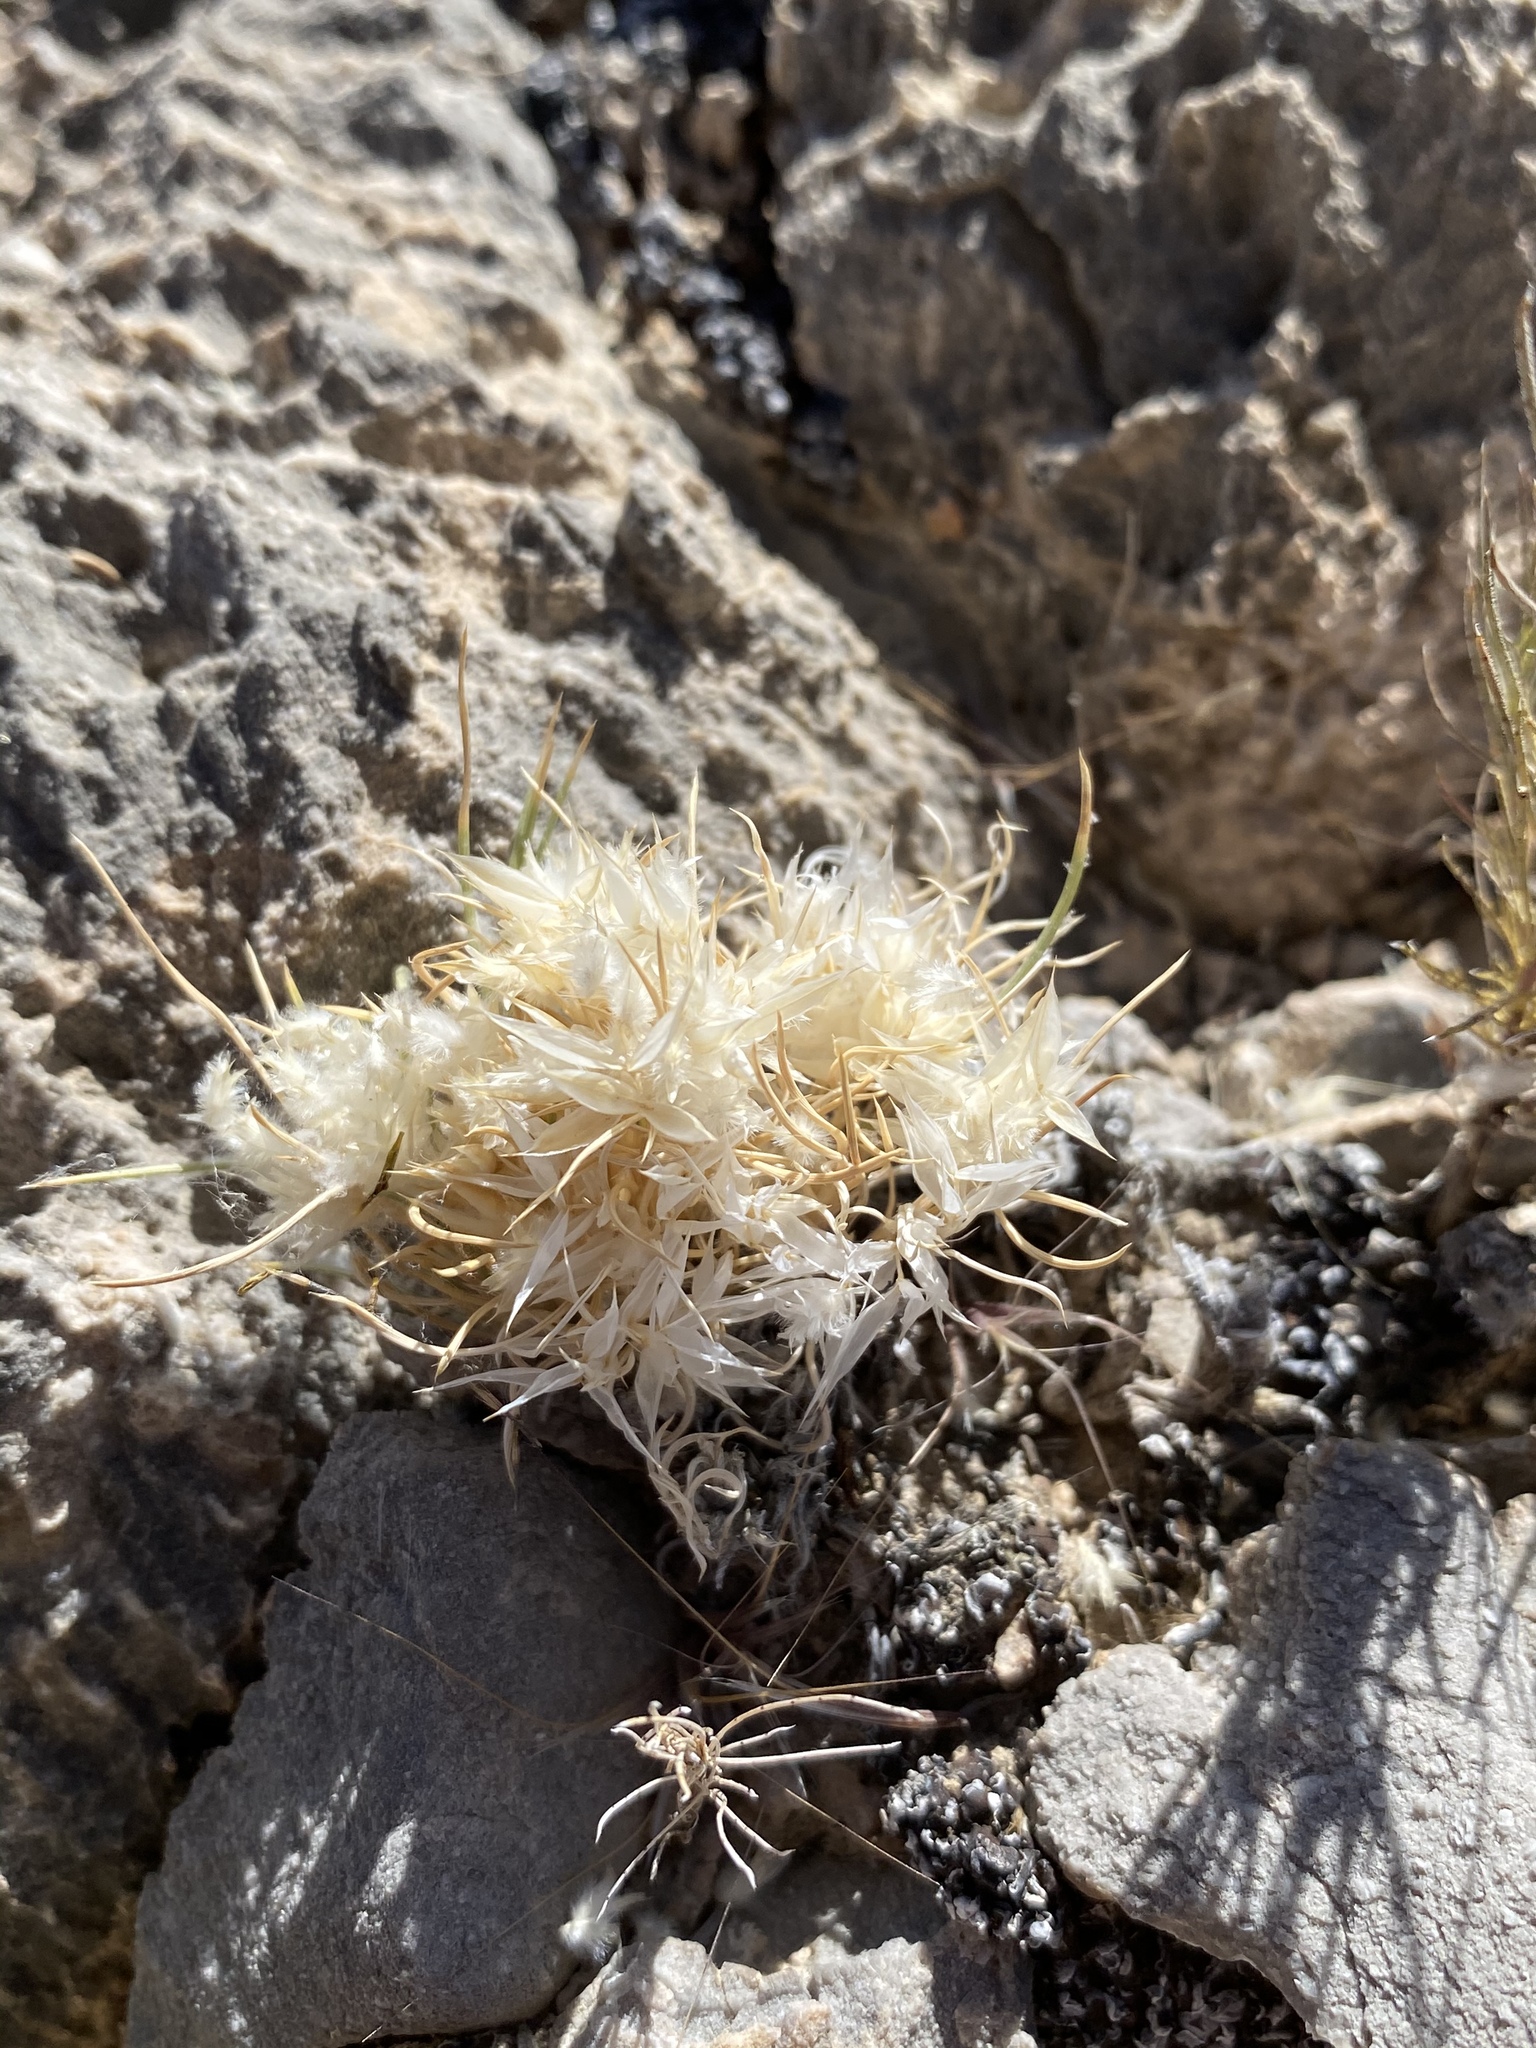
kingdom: Plantae
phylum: Tracheophyta
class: Liliopsida
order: Poales
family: Poaceae
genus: Dasyochloa
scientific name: Dasyochloa pulchella
